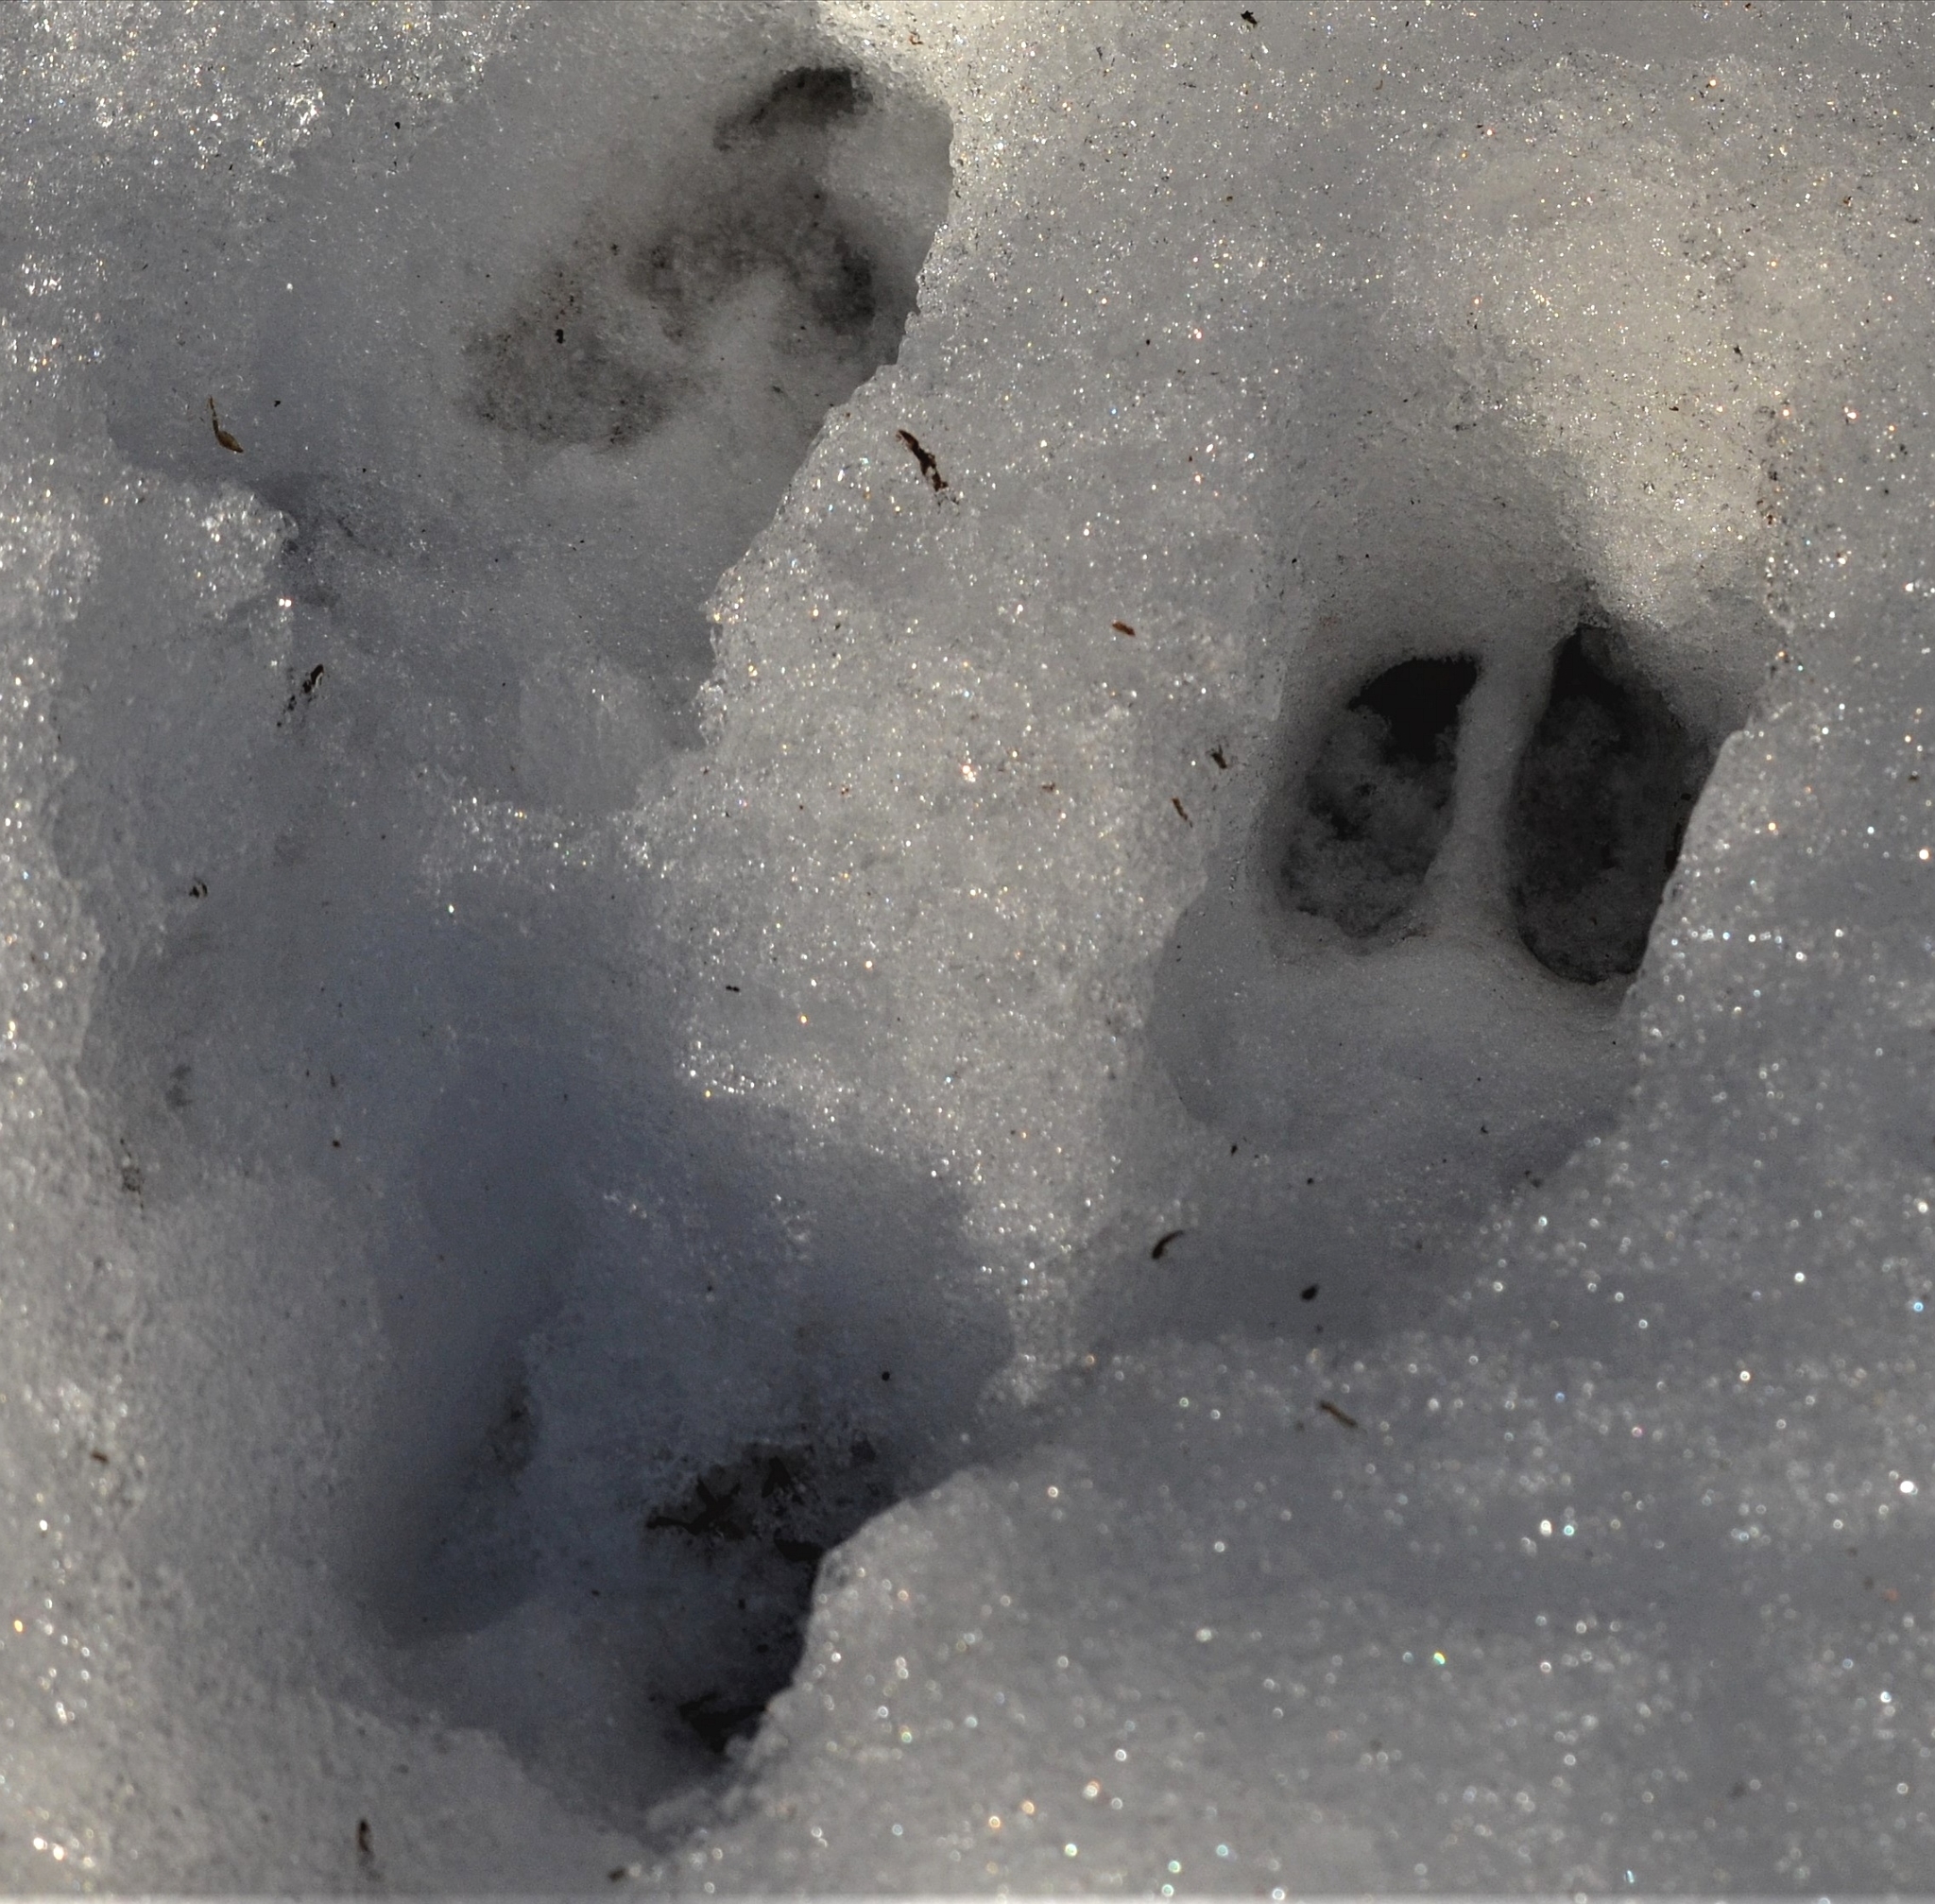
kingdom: Animalia
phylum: Chordata
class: Mammalia
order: Artiodactyla
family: Cervidae
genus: Capreolus
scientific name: Capreolus capreolus
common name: Western roe deer
